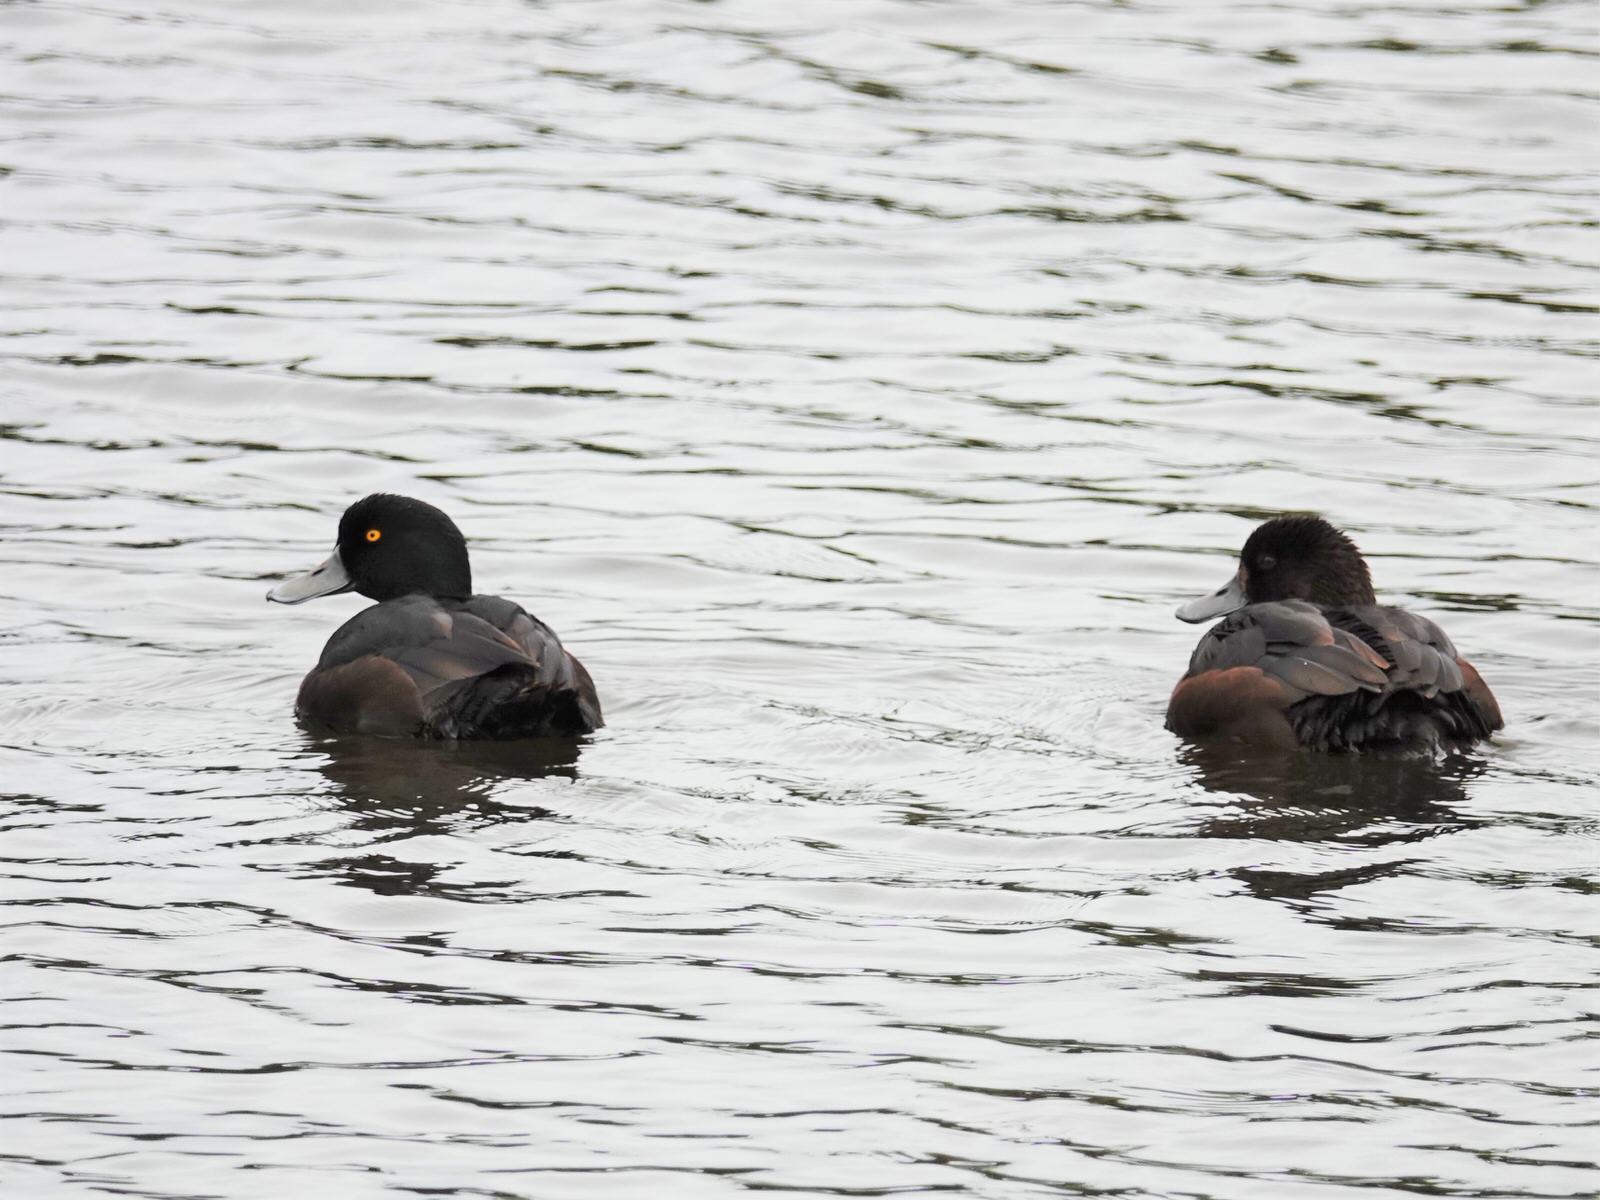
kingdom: Animalia
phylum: Chordata
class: Aves
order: Anseriformes
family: Anatidae
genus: Aythya
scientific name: Aythya novaeseelandiae
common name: New zealand scaup
